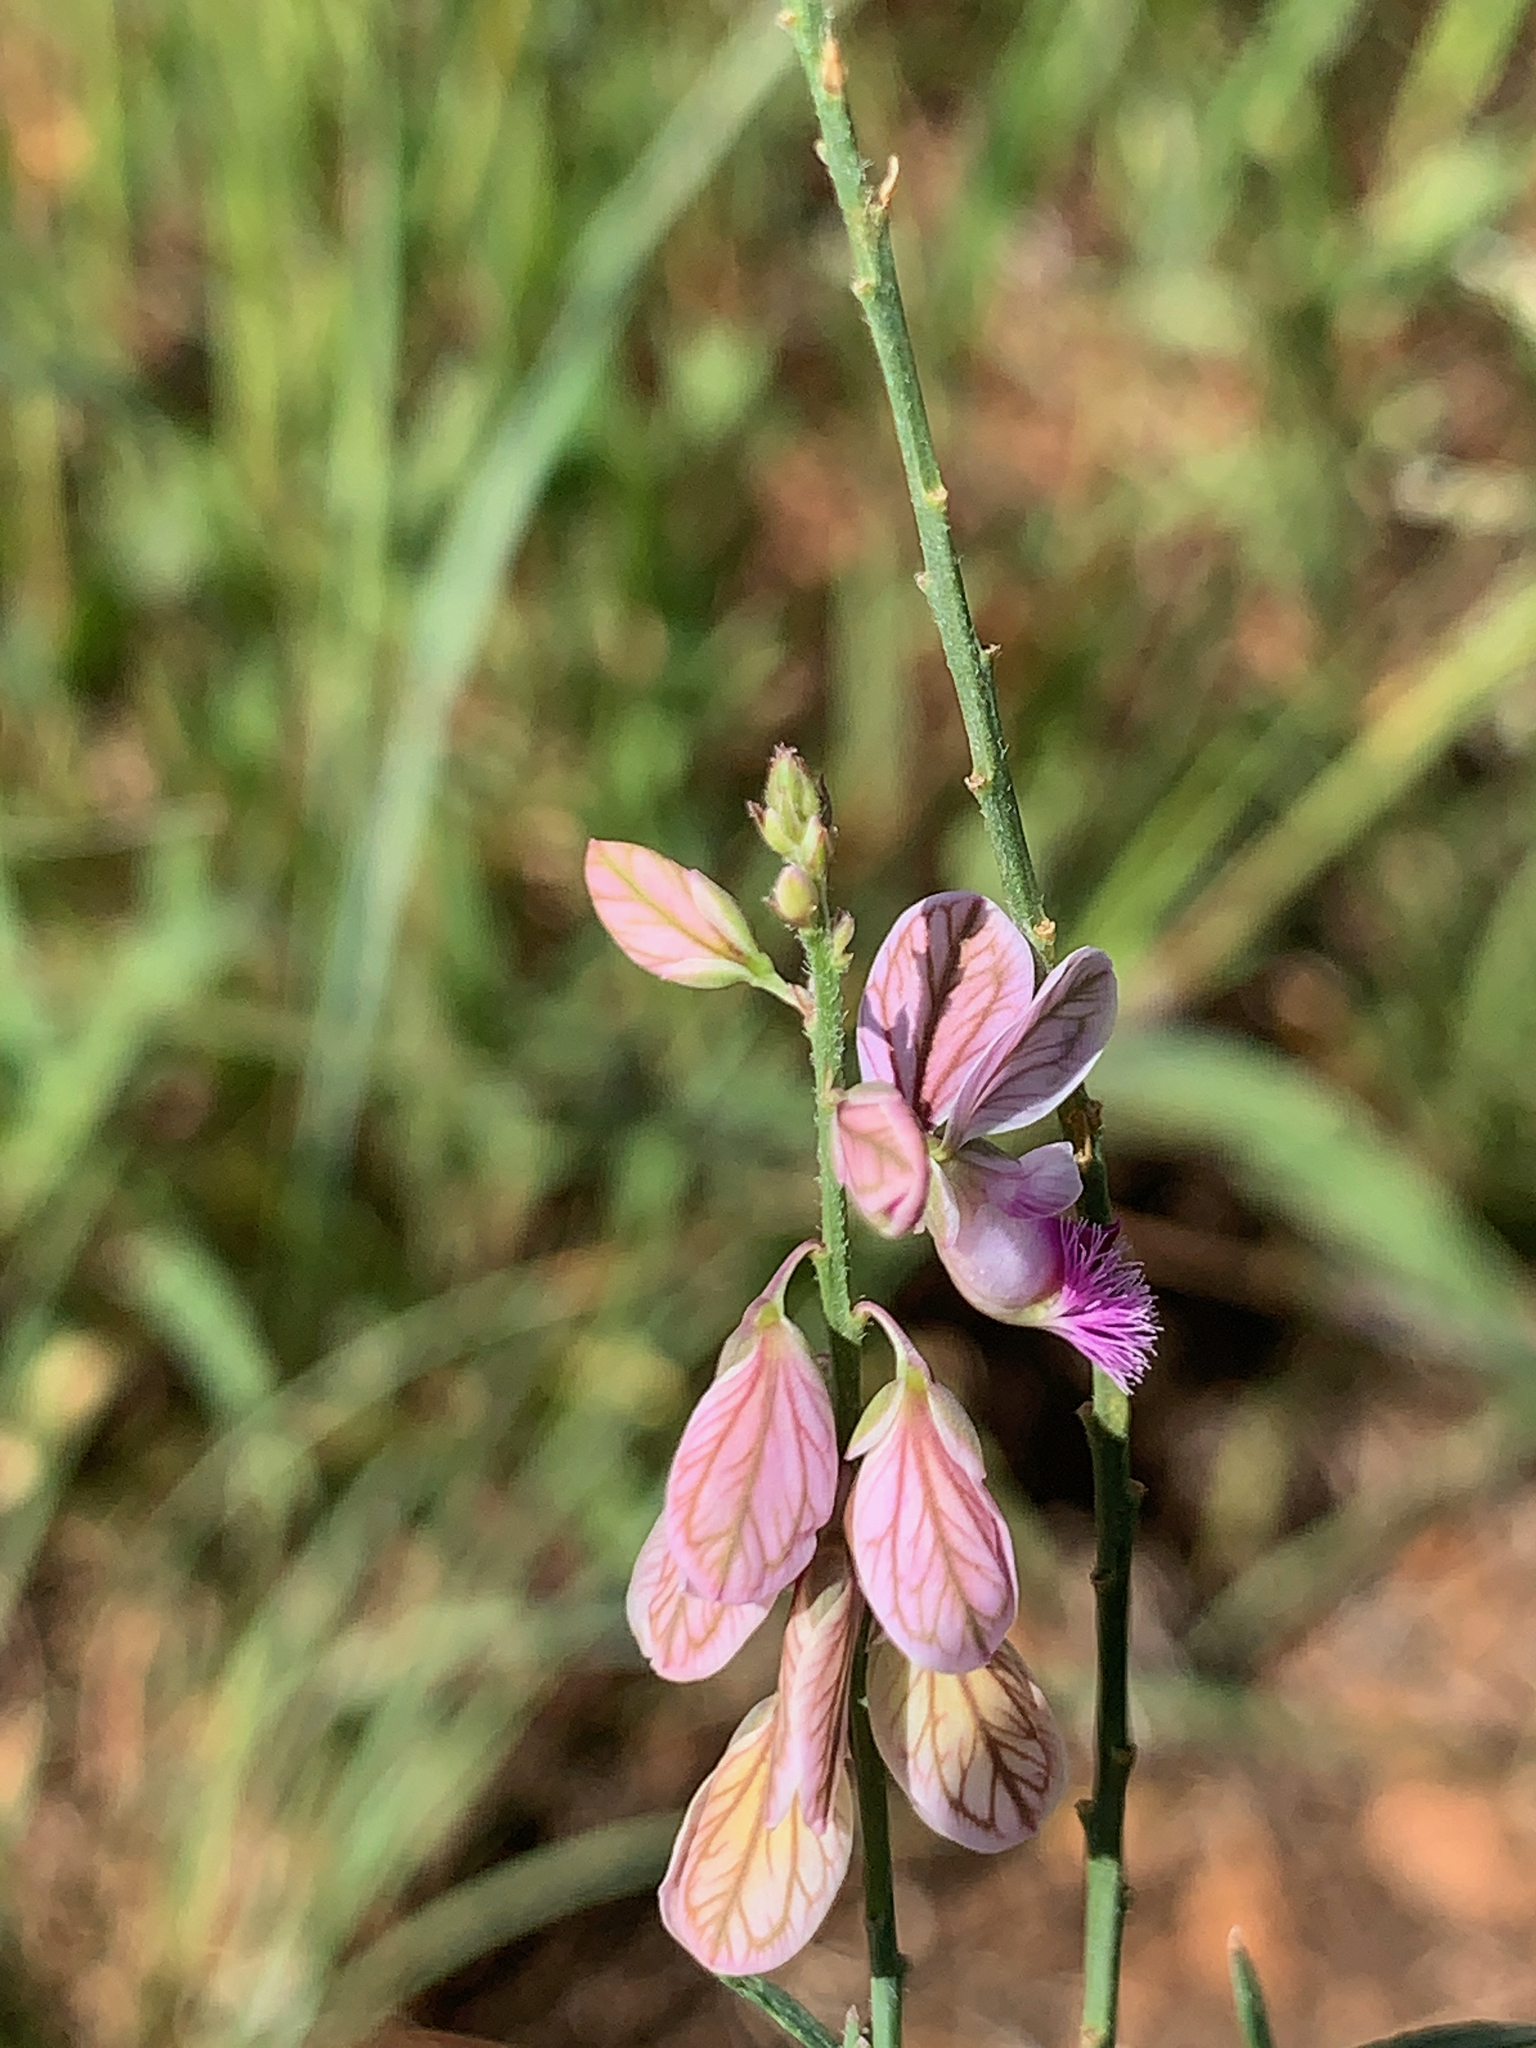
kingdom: Plantae
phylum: Tracheophyta
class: Magnoliopsida
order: Fabales
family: Polygalaceae
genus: Polygala
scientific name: Polygala hottentotta
